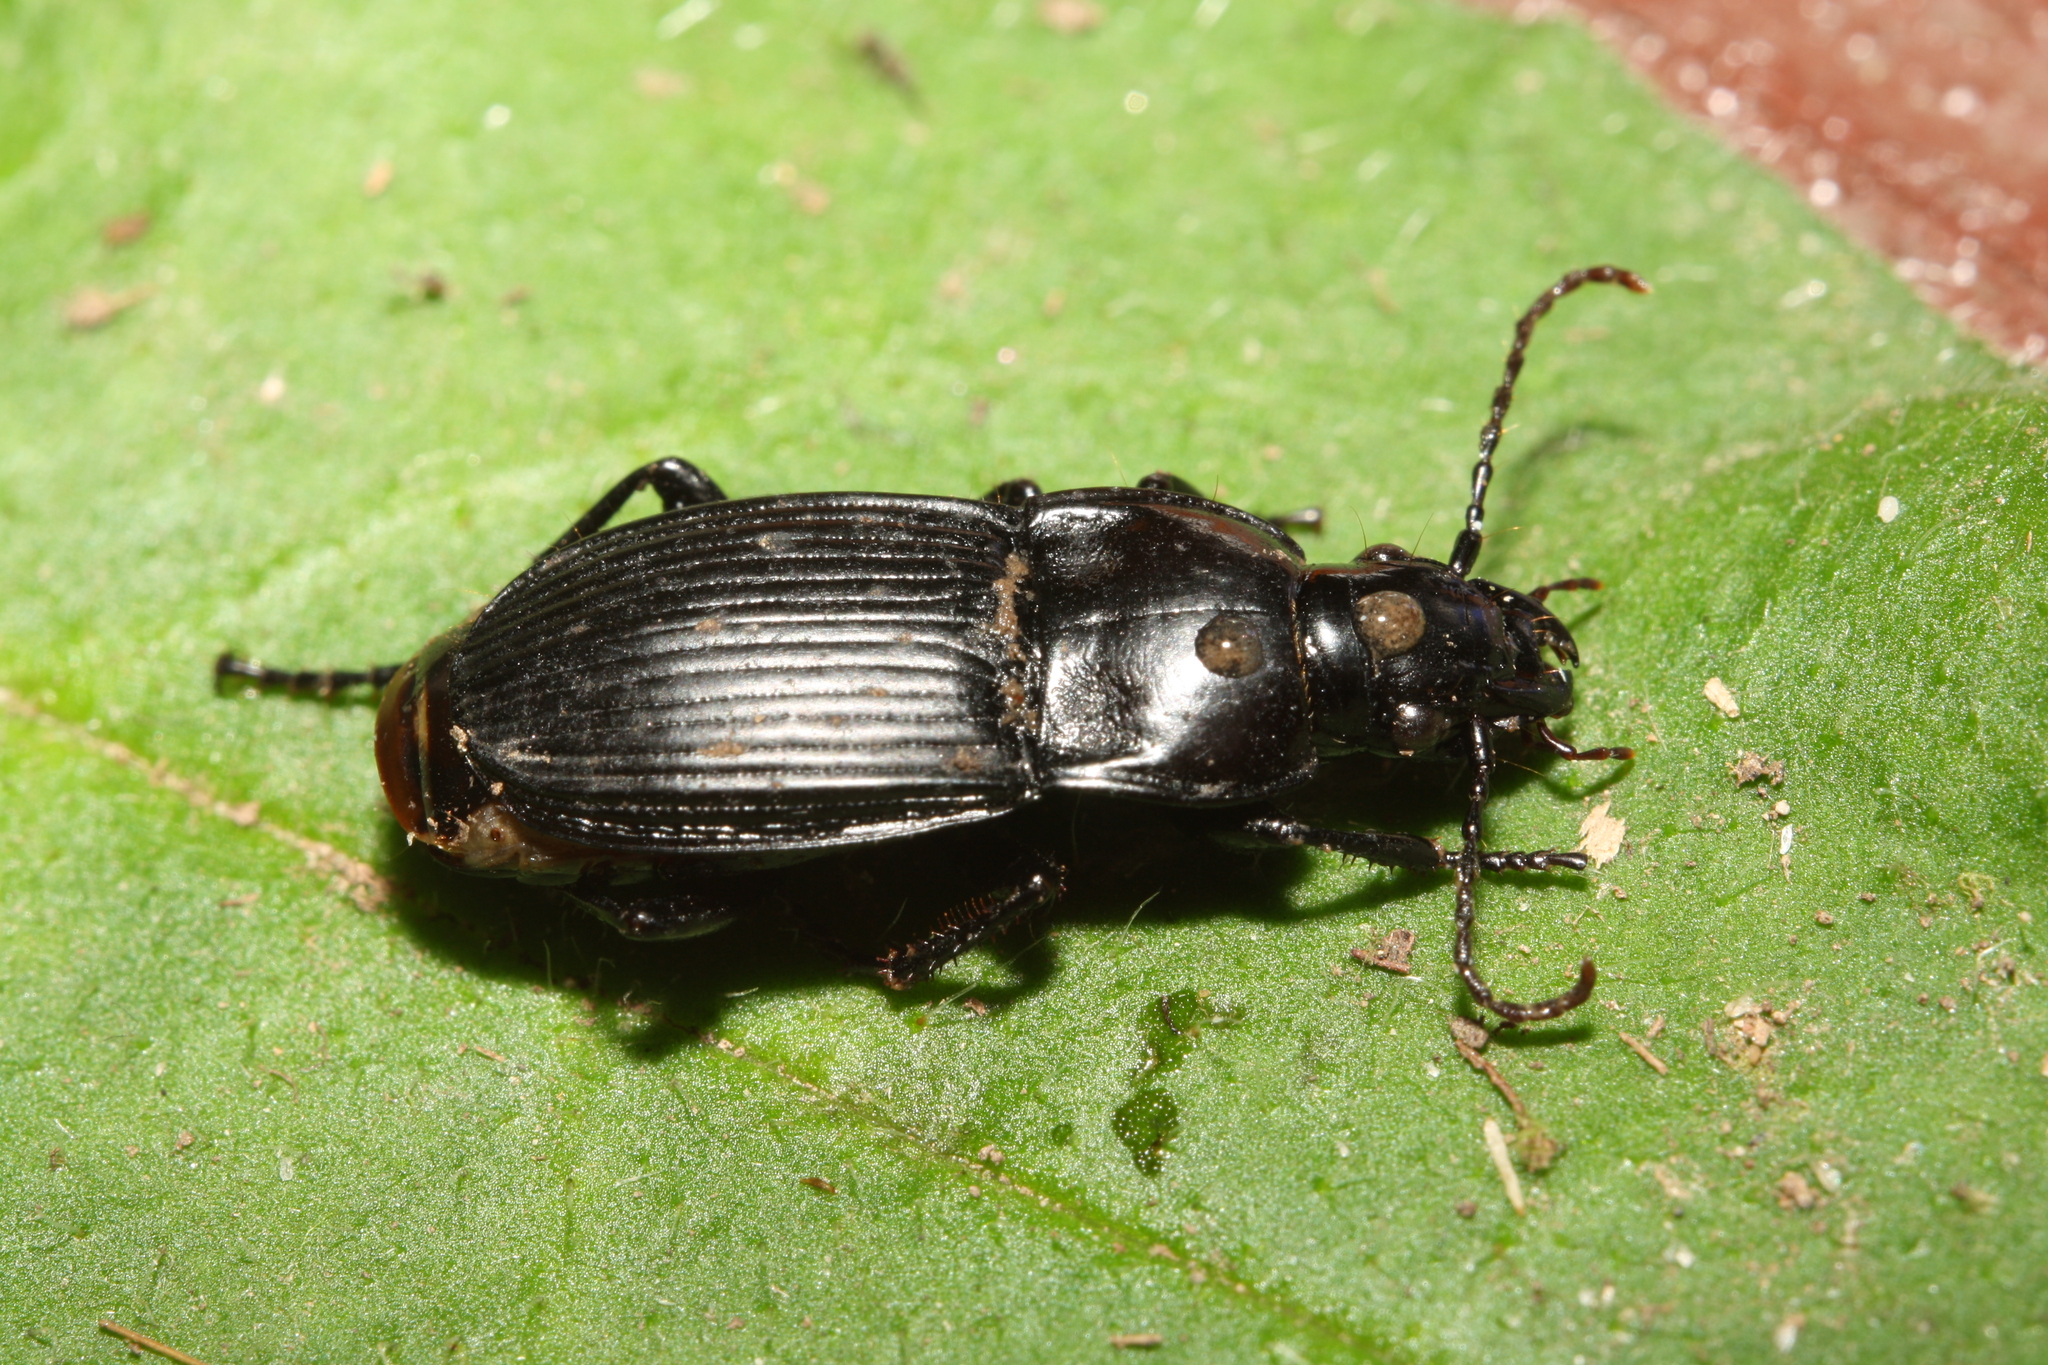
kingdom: Animalia
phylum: Arthropoda
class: Insecta
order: Coleoptera
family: Carabidae
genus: Abax
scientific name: Abax carinatus
